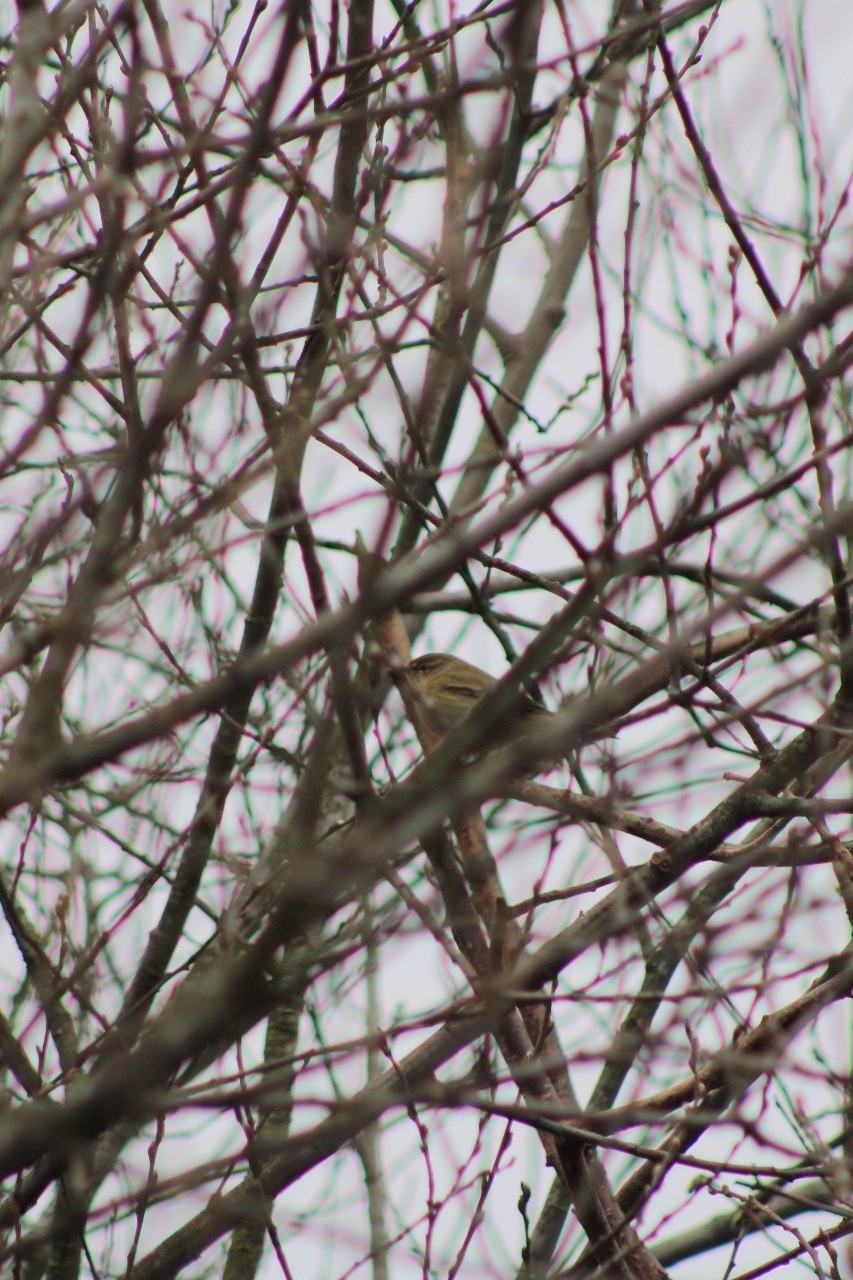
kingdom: Animalia
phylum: Chordata
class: Aves
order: Passeriformes
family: Phylloscopidae
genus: Phylloscopus
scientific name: Phylloscopus collybita
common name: Common chiffchaff
